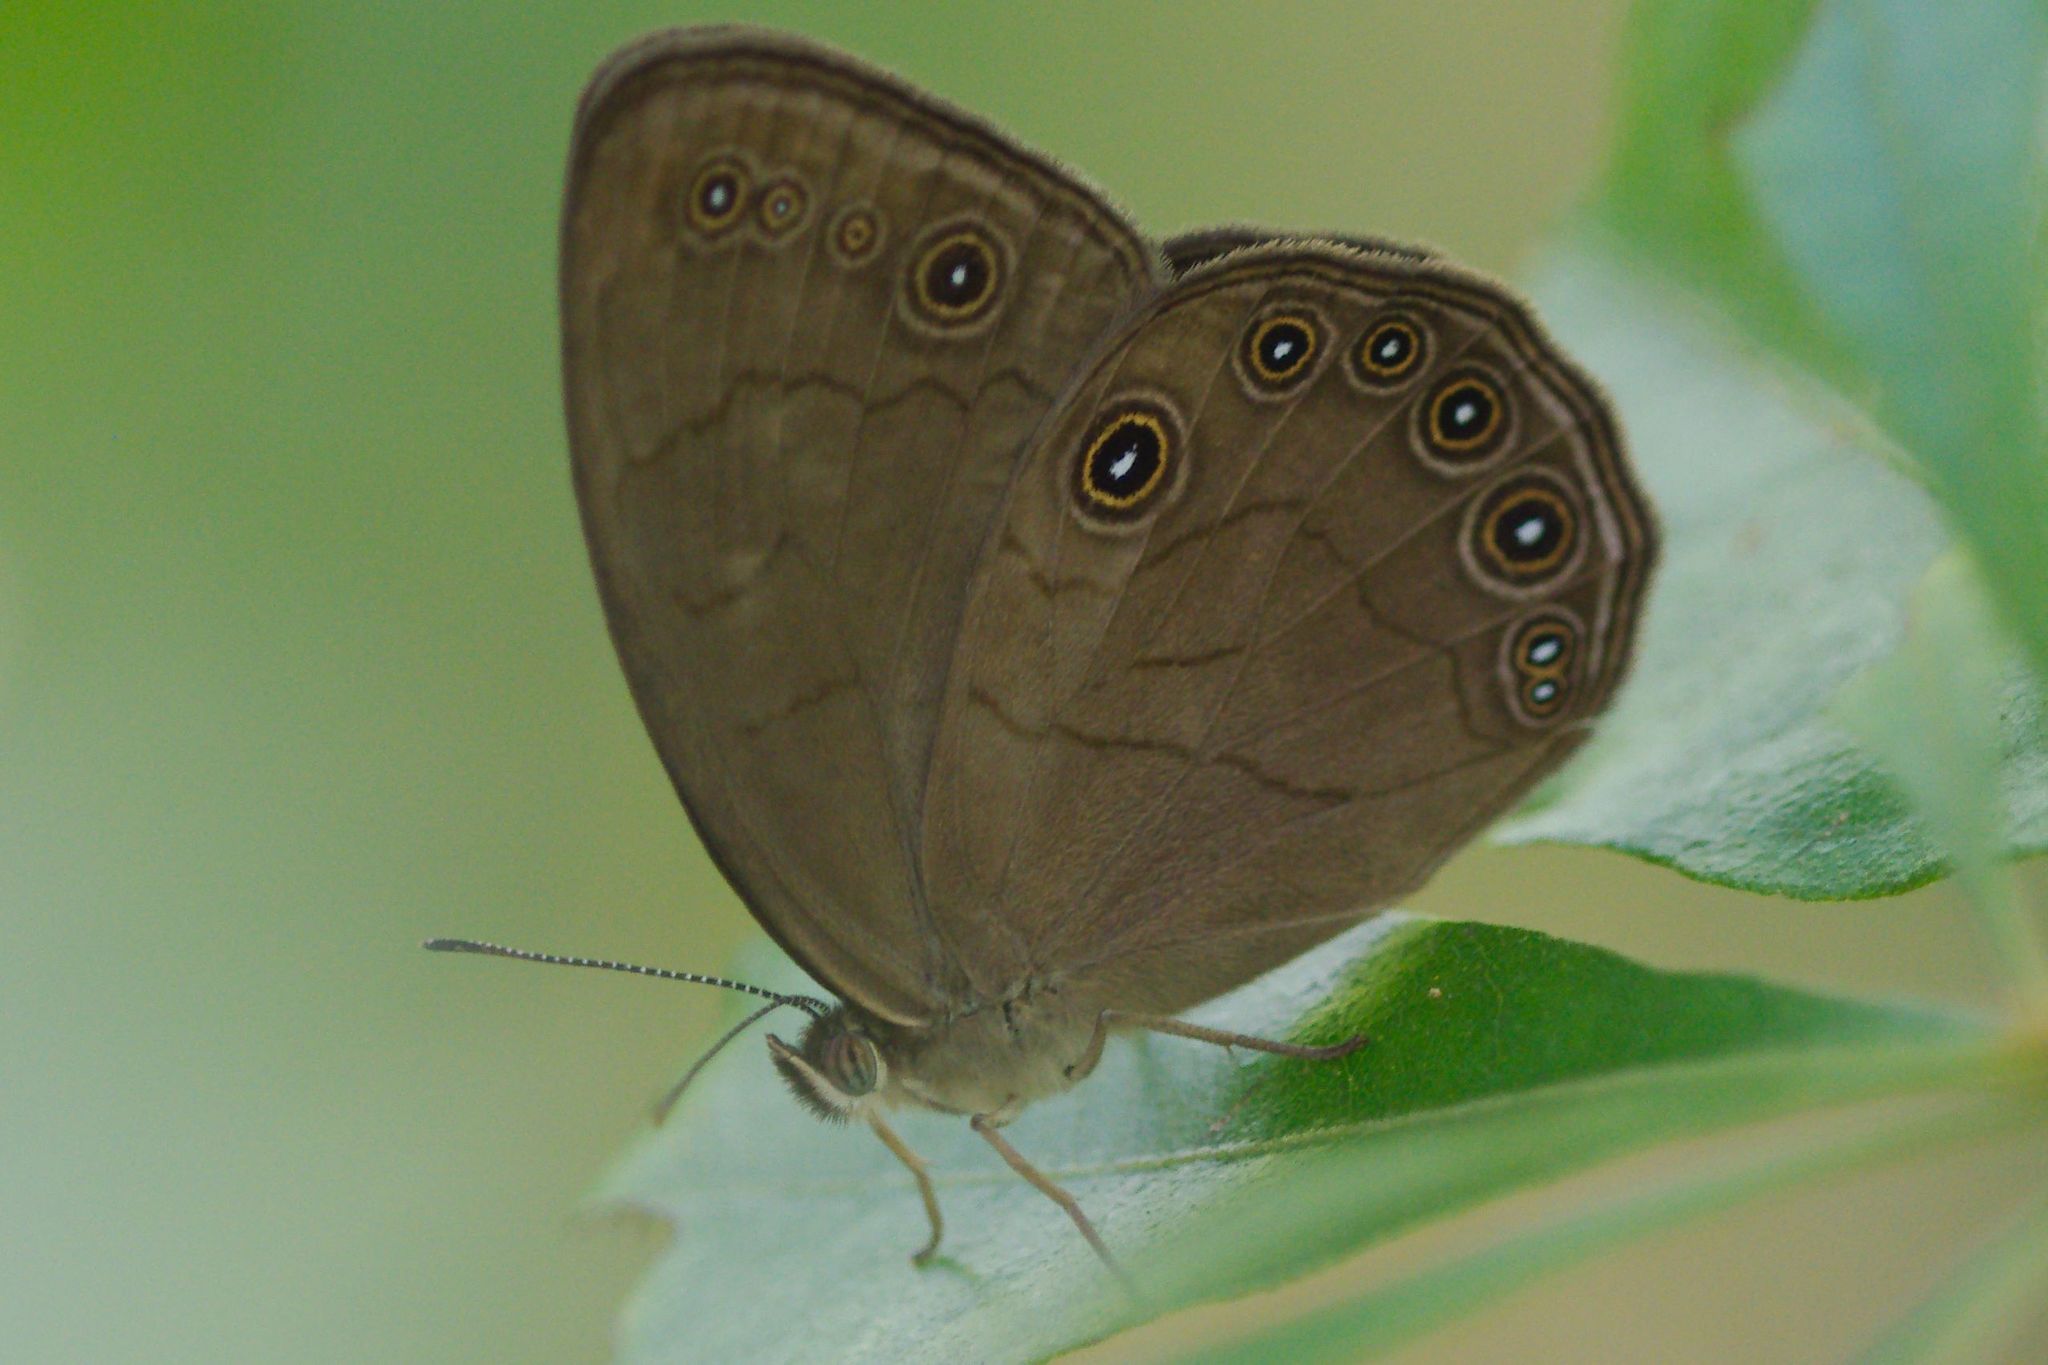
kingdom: Animalia
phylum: Arthropoda
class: Insecta
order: Lepidoptera
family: Nymphalidae
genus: Lethe
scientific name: Lethe eurydice
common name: Eyed brown
